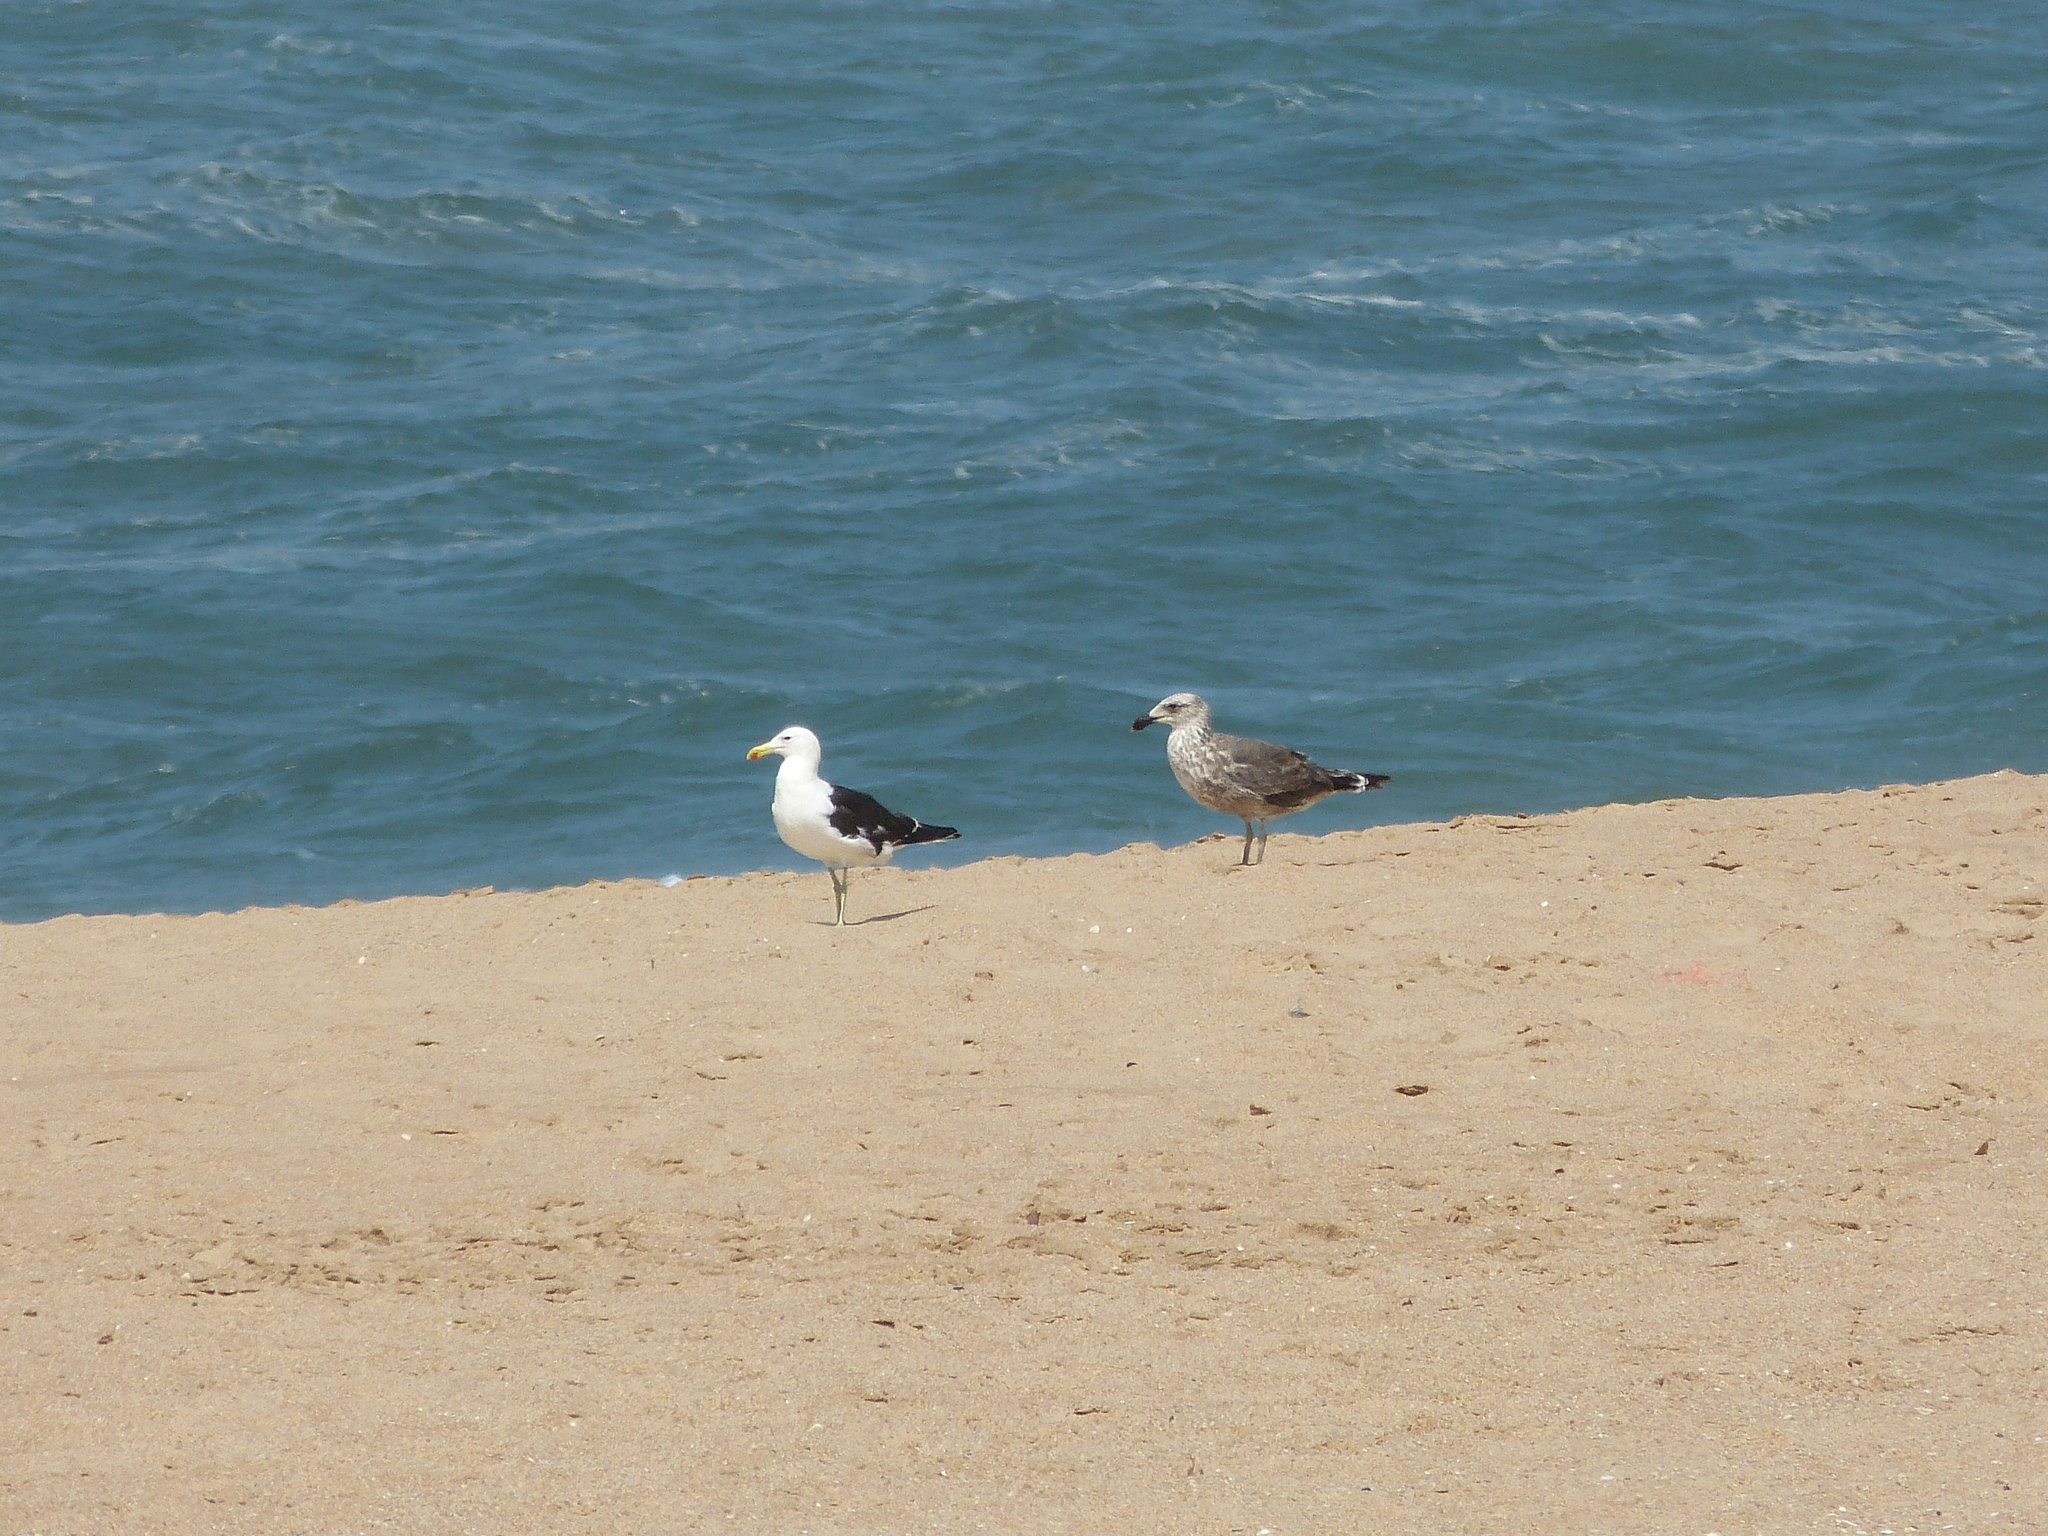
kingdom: Animalia
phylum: Chordata
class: Aves
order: Charadriiformes
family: Laridae
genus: Larus
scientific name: Larus dominicanus
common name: Kelp gull
